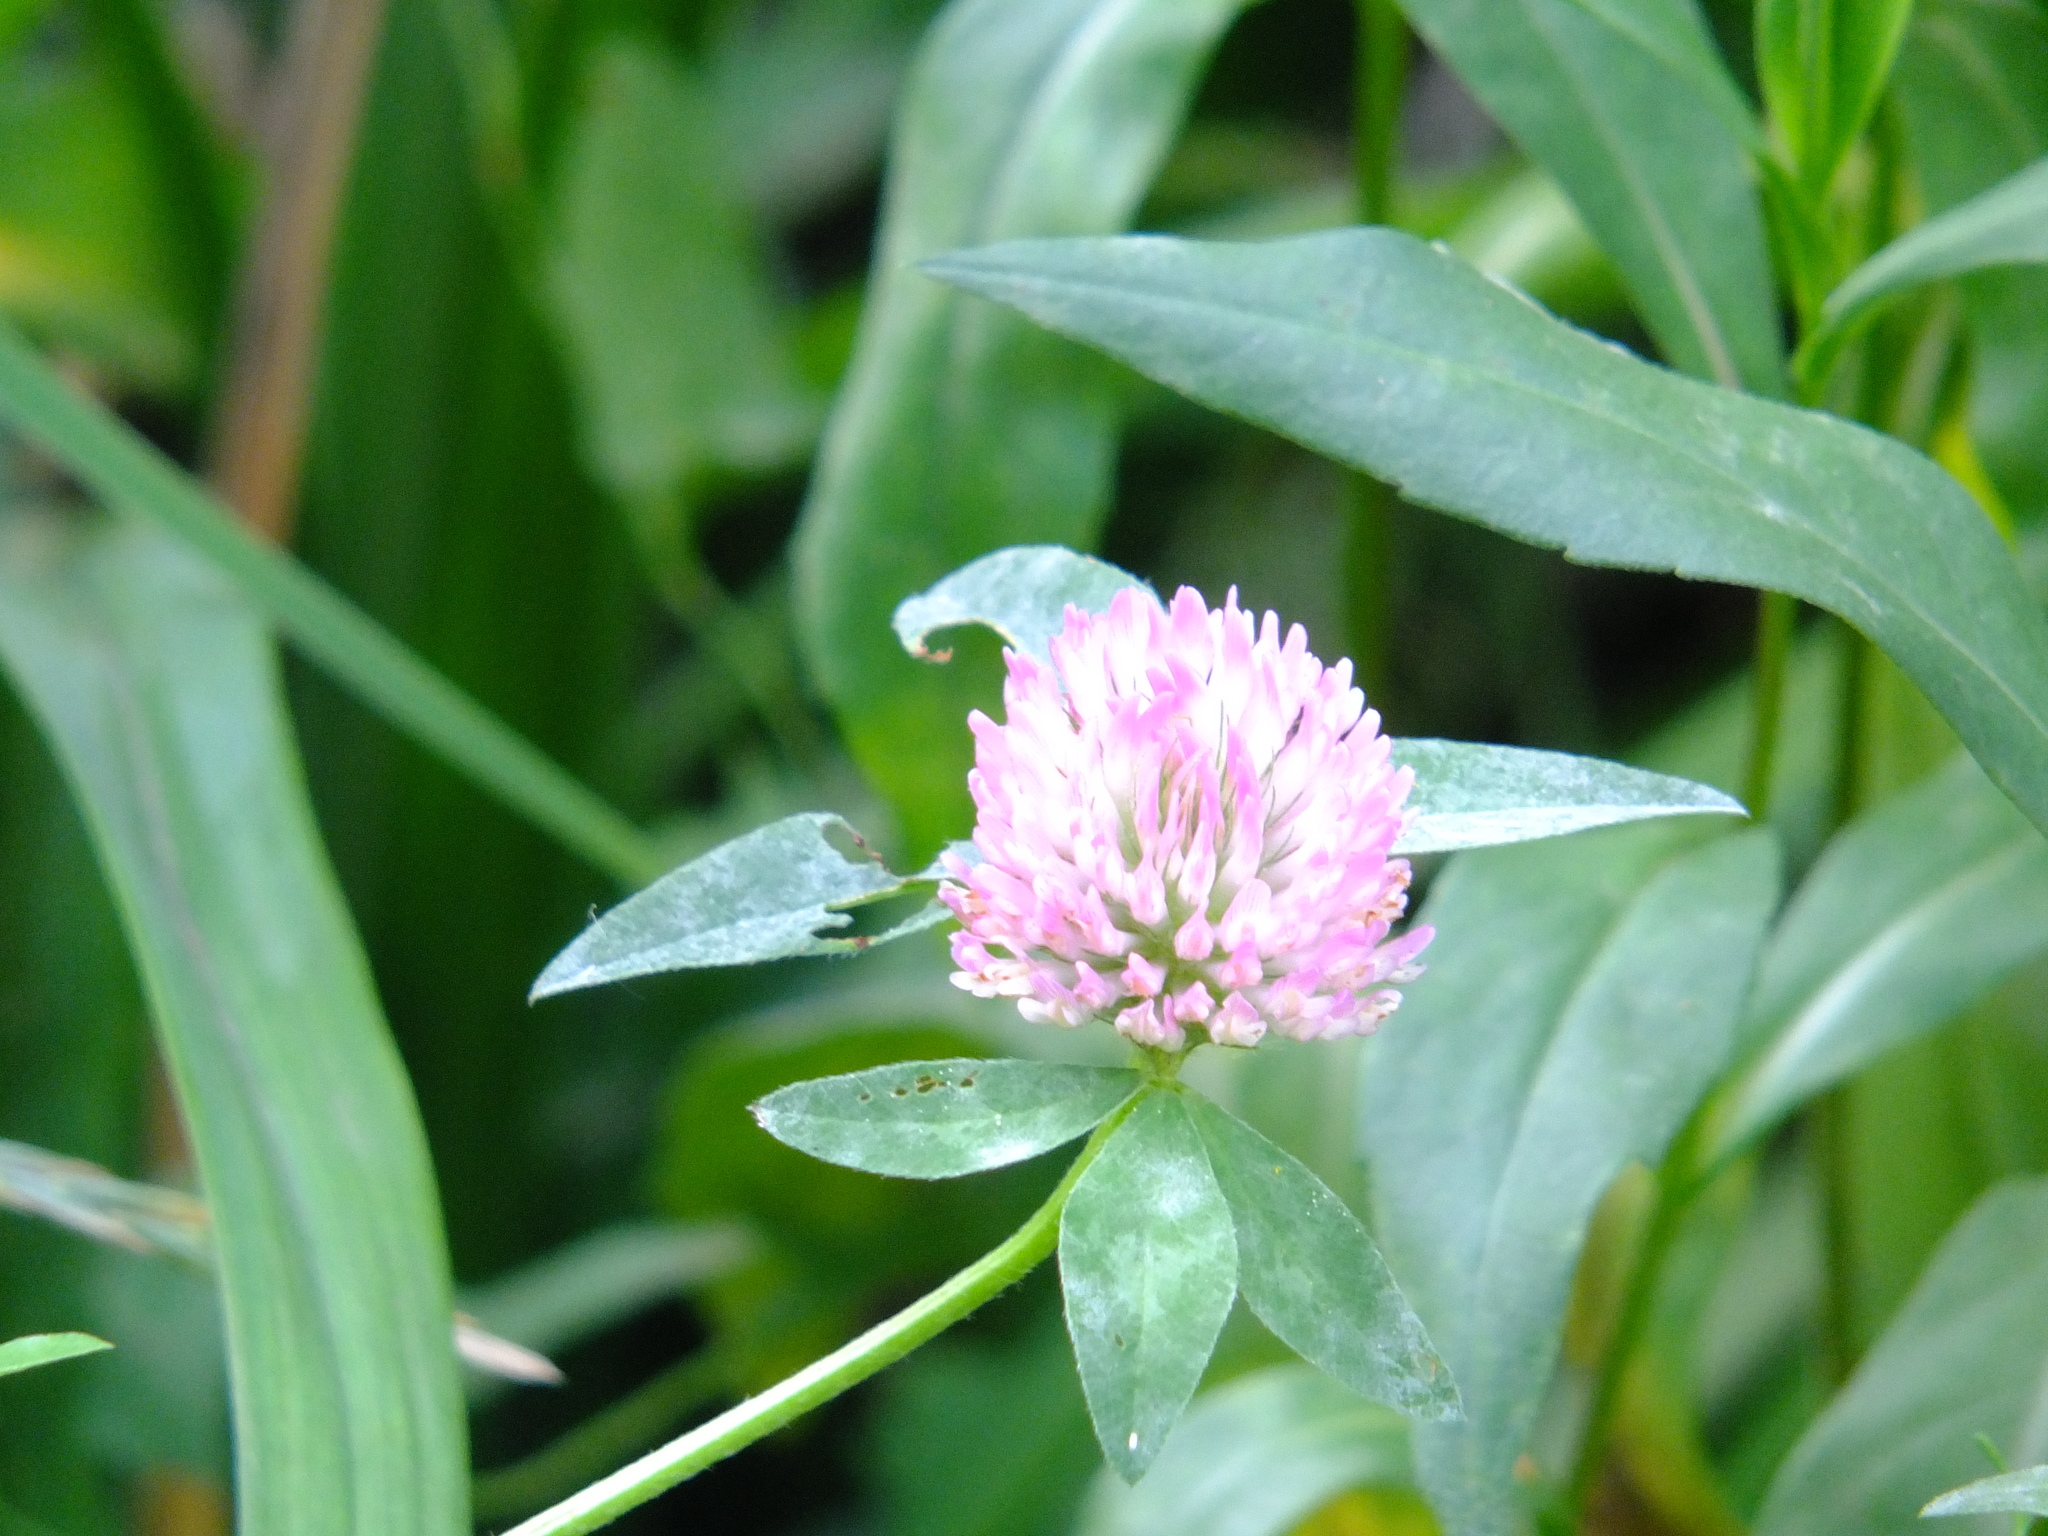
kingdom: Plantae
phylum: Tracheophyta
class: Magnoliopsida
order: Fabales
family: Fabaceae
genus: Trifolium
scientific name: Trifolium pratense
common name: Red clover
